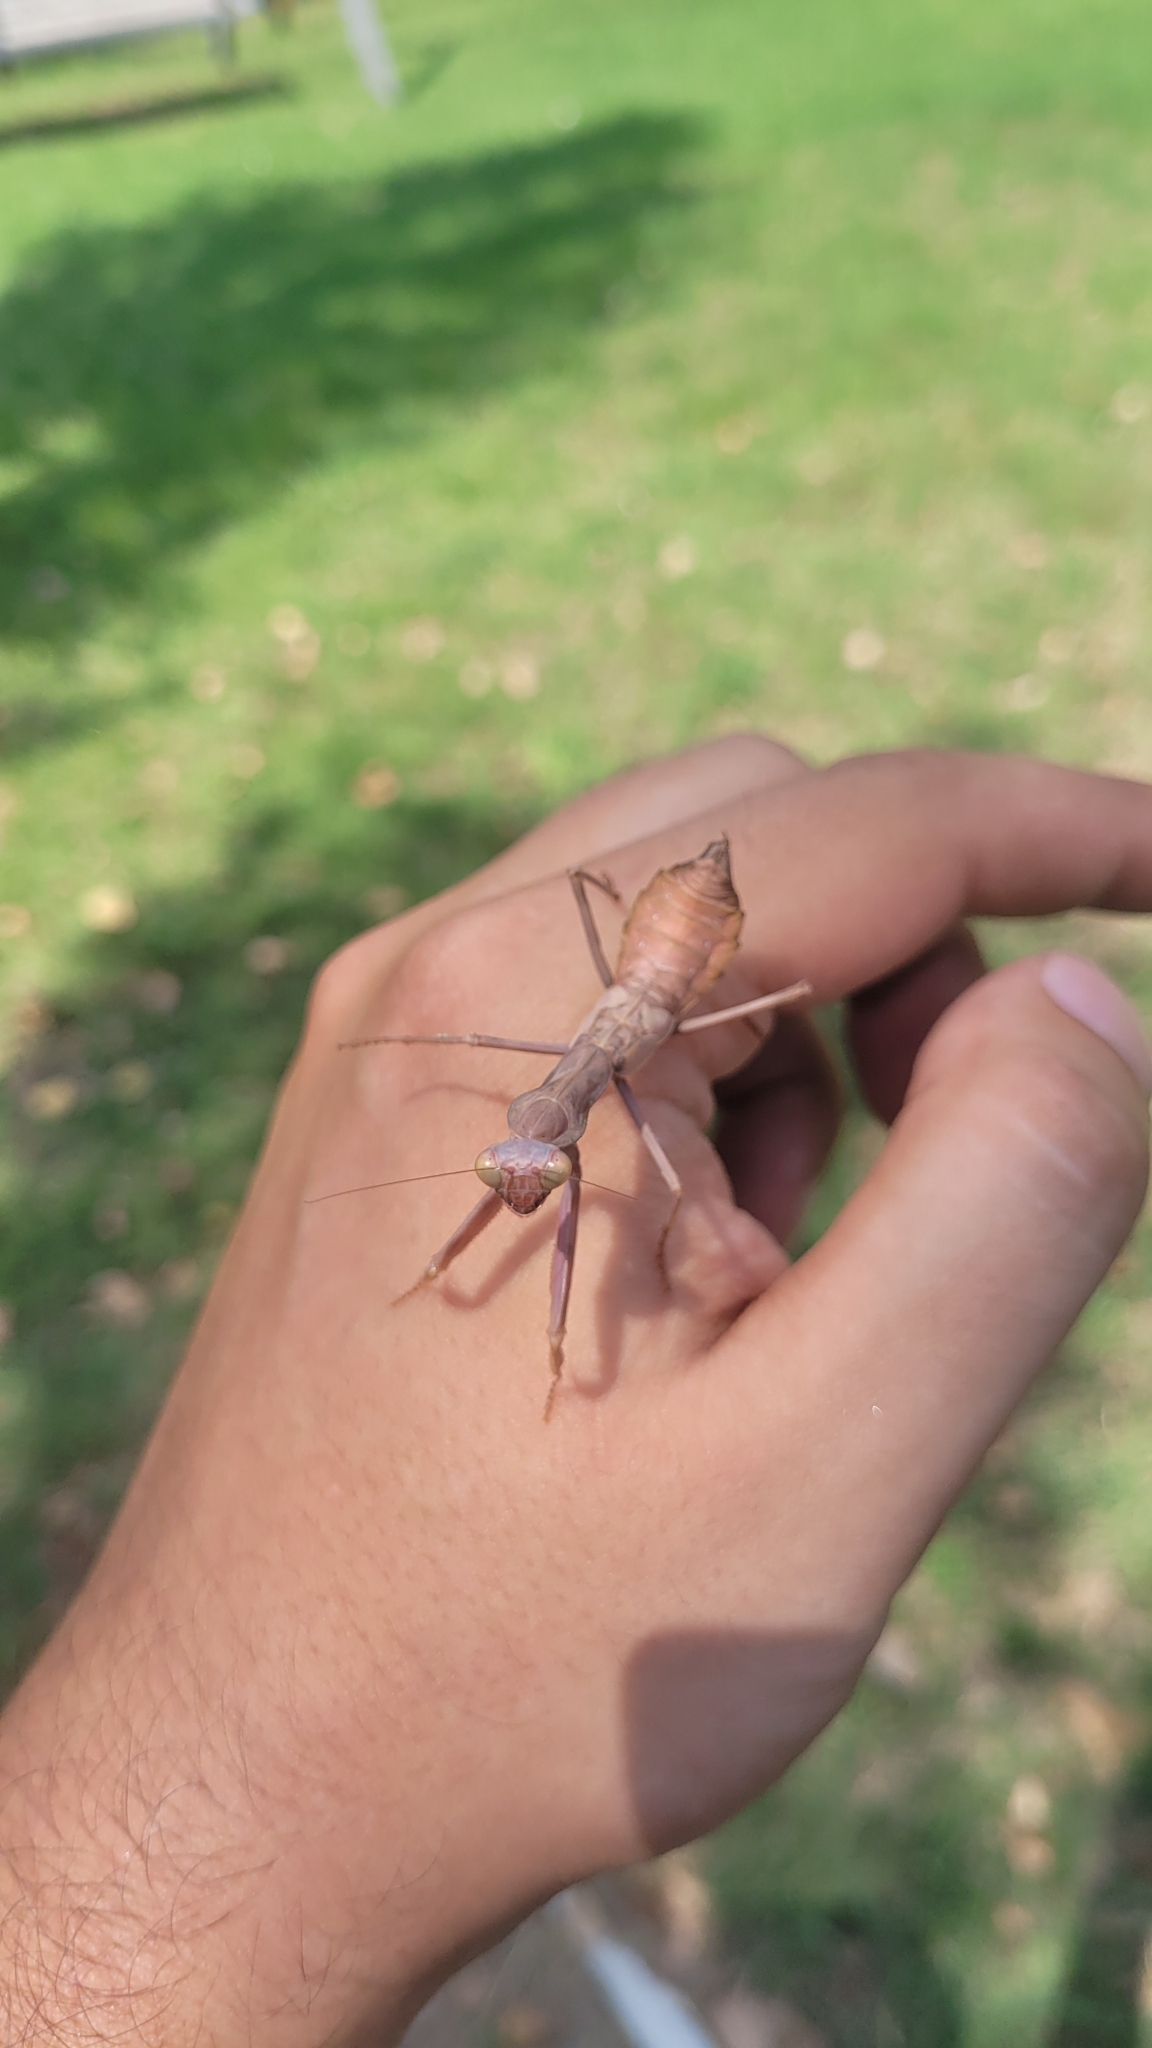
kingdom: Animalia
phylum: Arthropoda
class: Insecta
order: Mantodea
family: Mantidae
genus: Hierodula
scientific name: Hierodula transcaucasica
